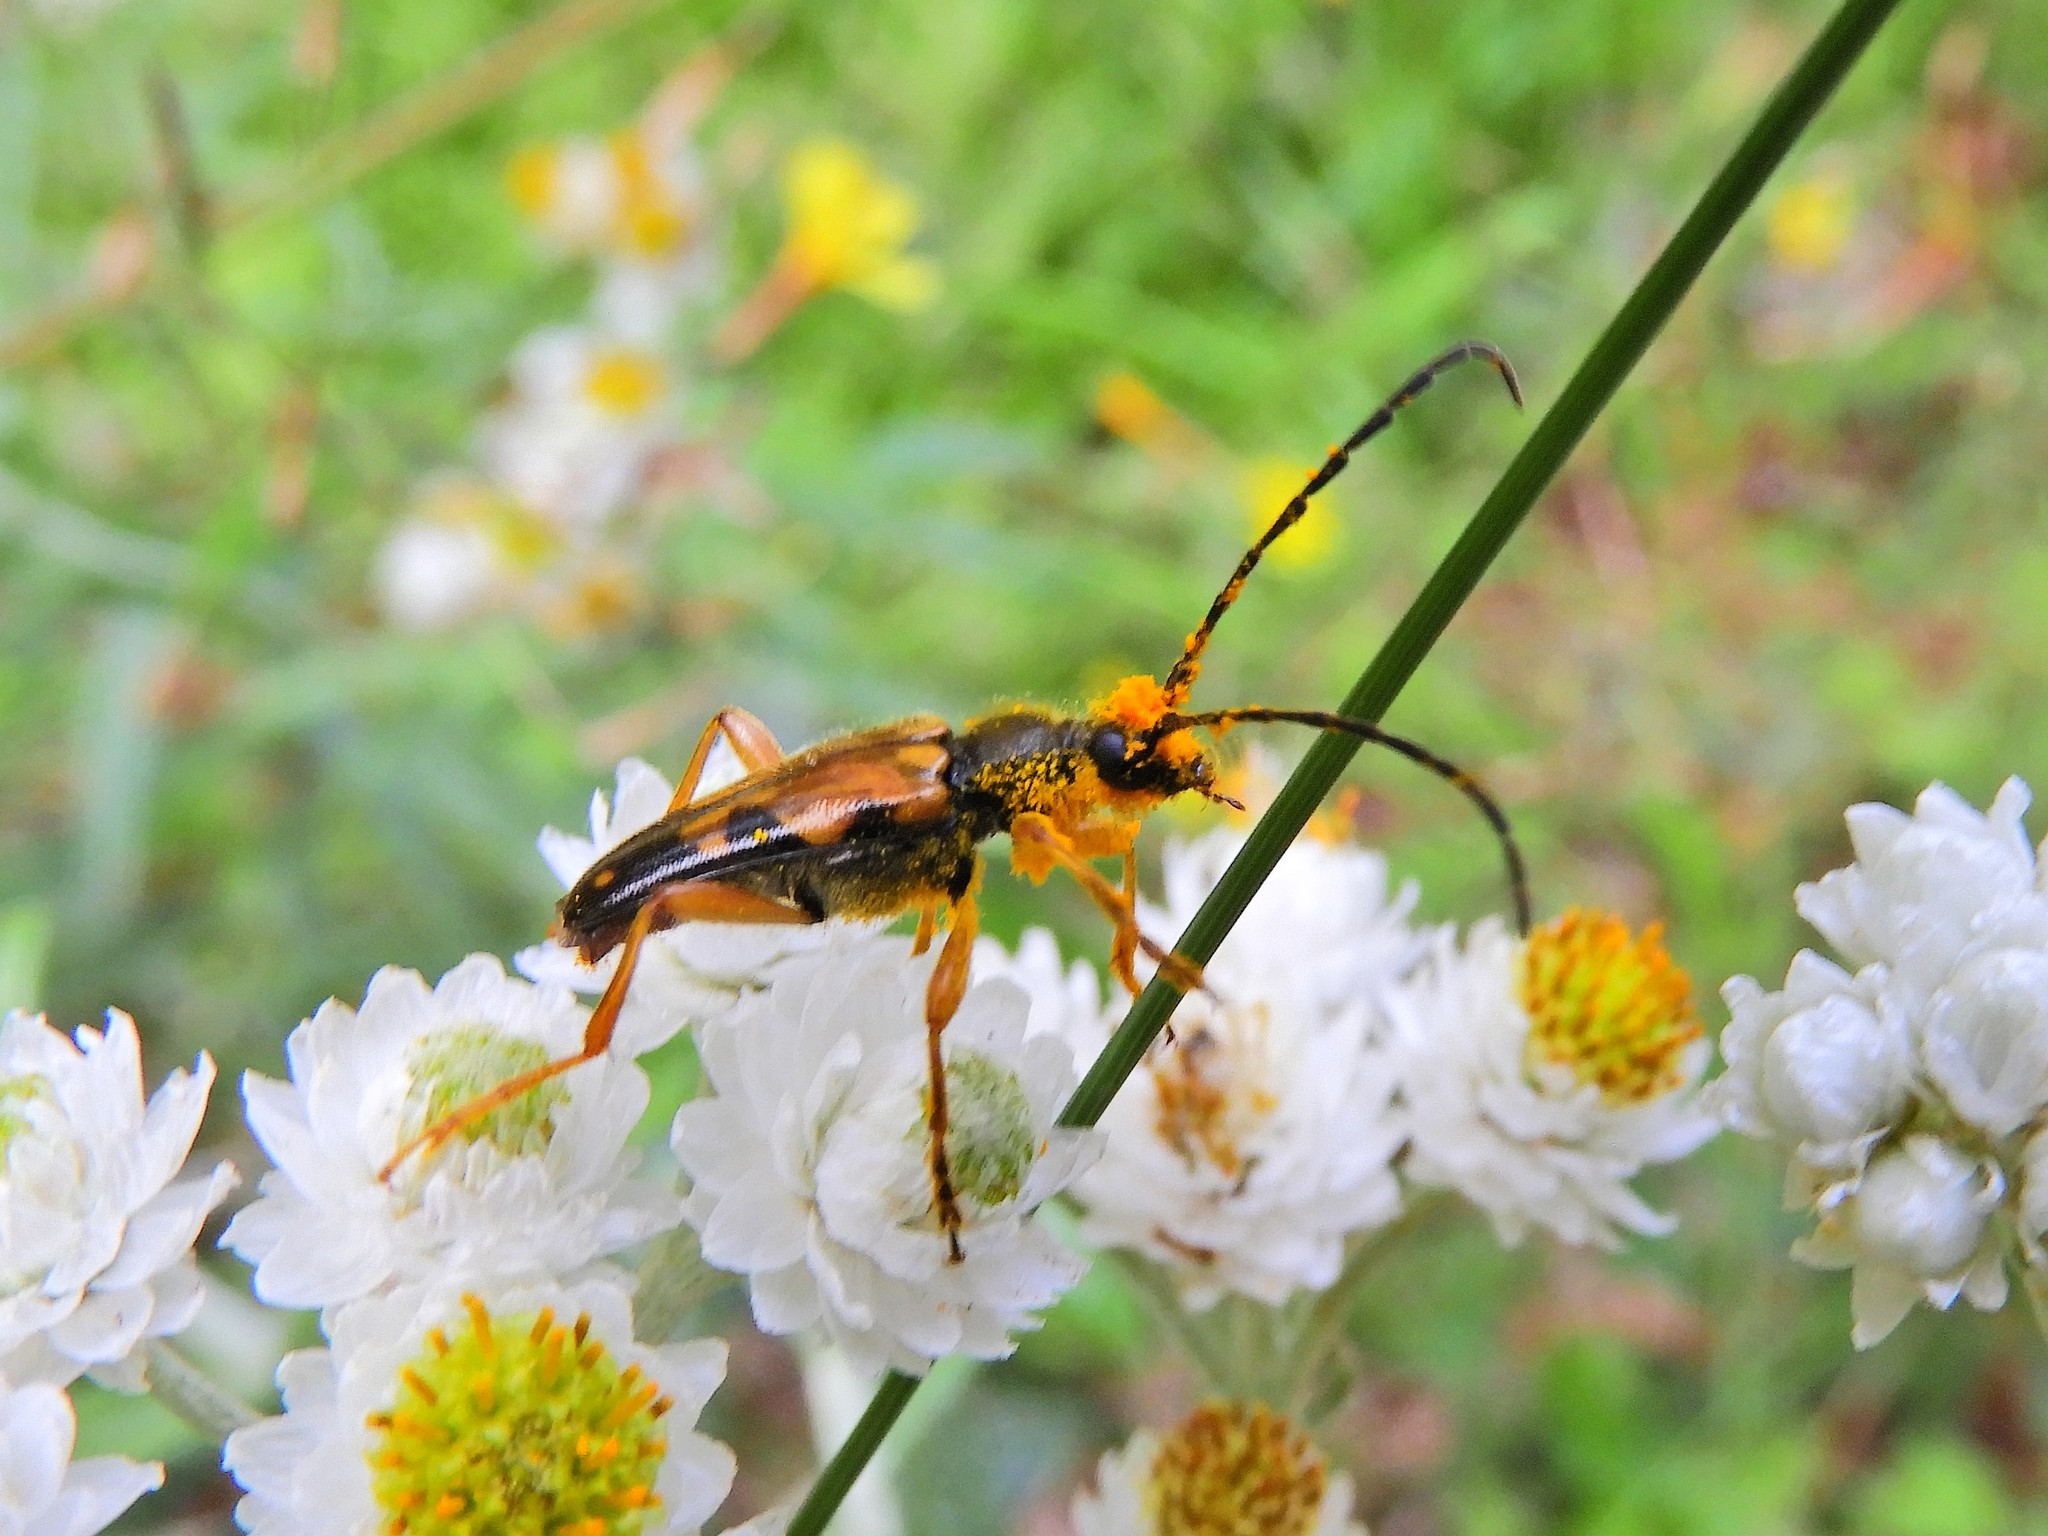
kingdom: Animalia
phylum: Arthropoda
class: Insecta
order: Coleoptera
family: Cerambycidae
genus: Xestoleptura
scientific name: Xestoleptura crassipes
